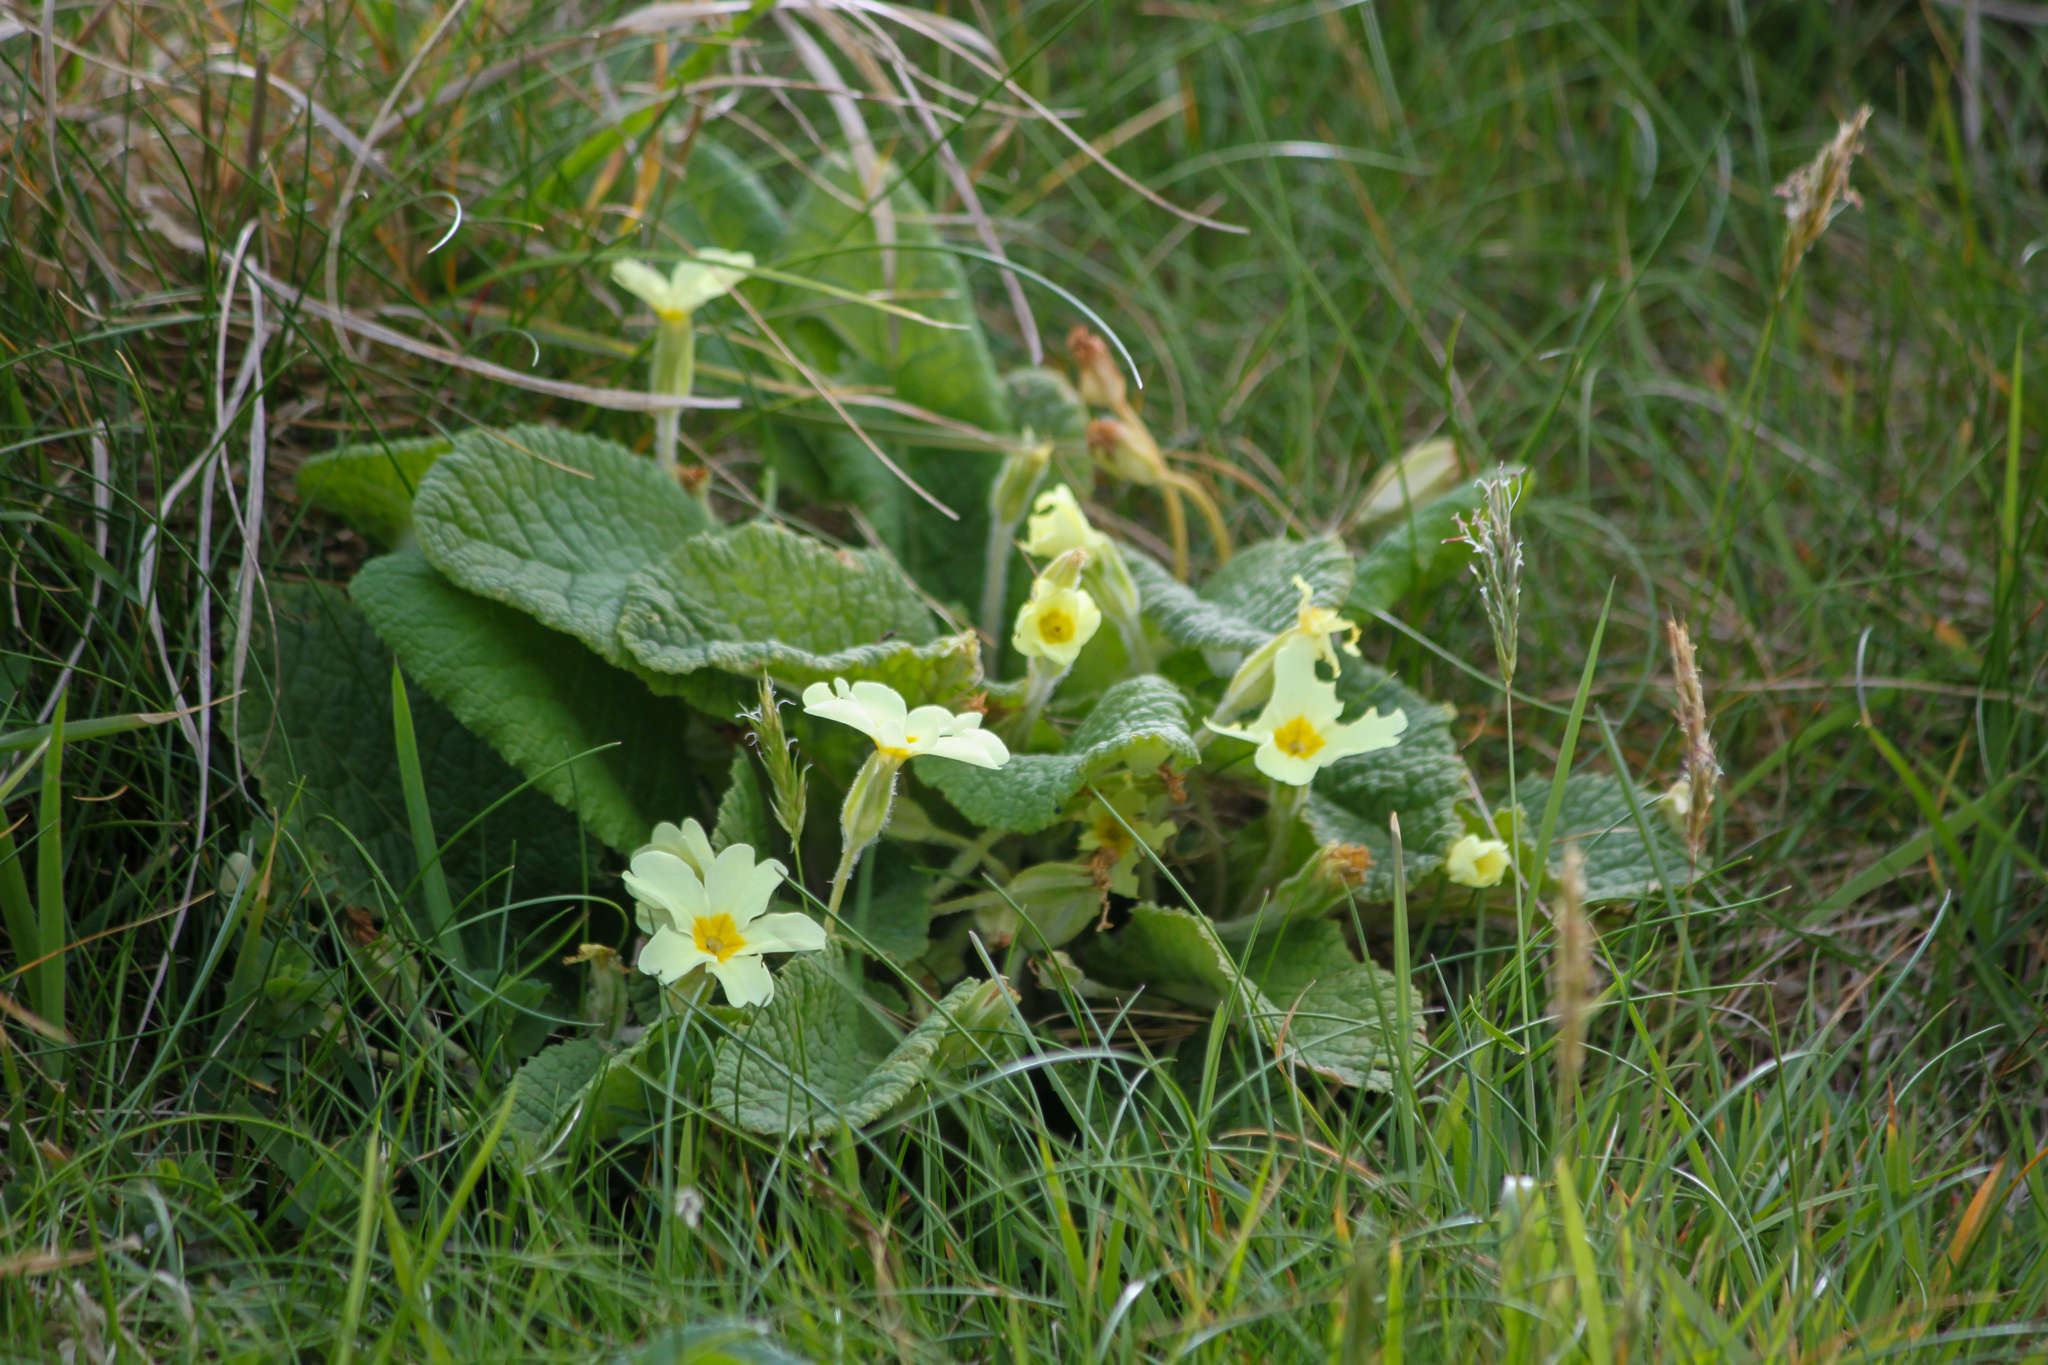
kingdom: Plantae
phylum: Tracheophyta
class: Magnoliopsida
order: Ericales
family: Primulaceae
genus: Primula
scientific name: Primula vulgaris
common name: Primrose
